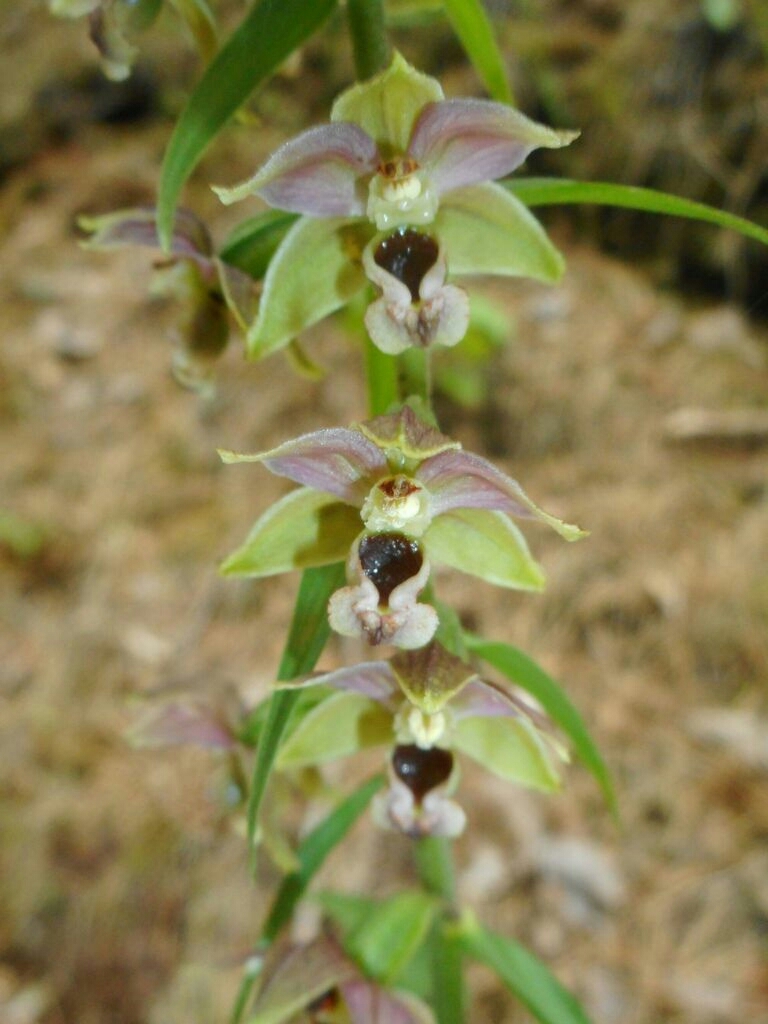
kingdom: Plantae
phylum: Tracheophyta
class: Liliopsida
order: Asparagales
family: Orchidaceae
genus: Epipactis
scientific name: Epipactis helleborine
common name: Broad-leaved helleborine
